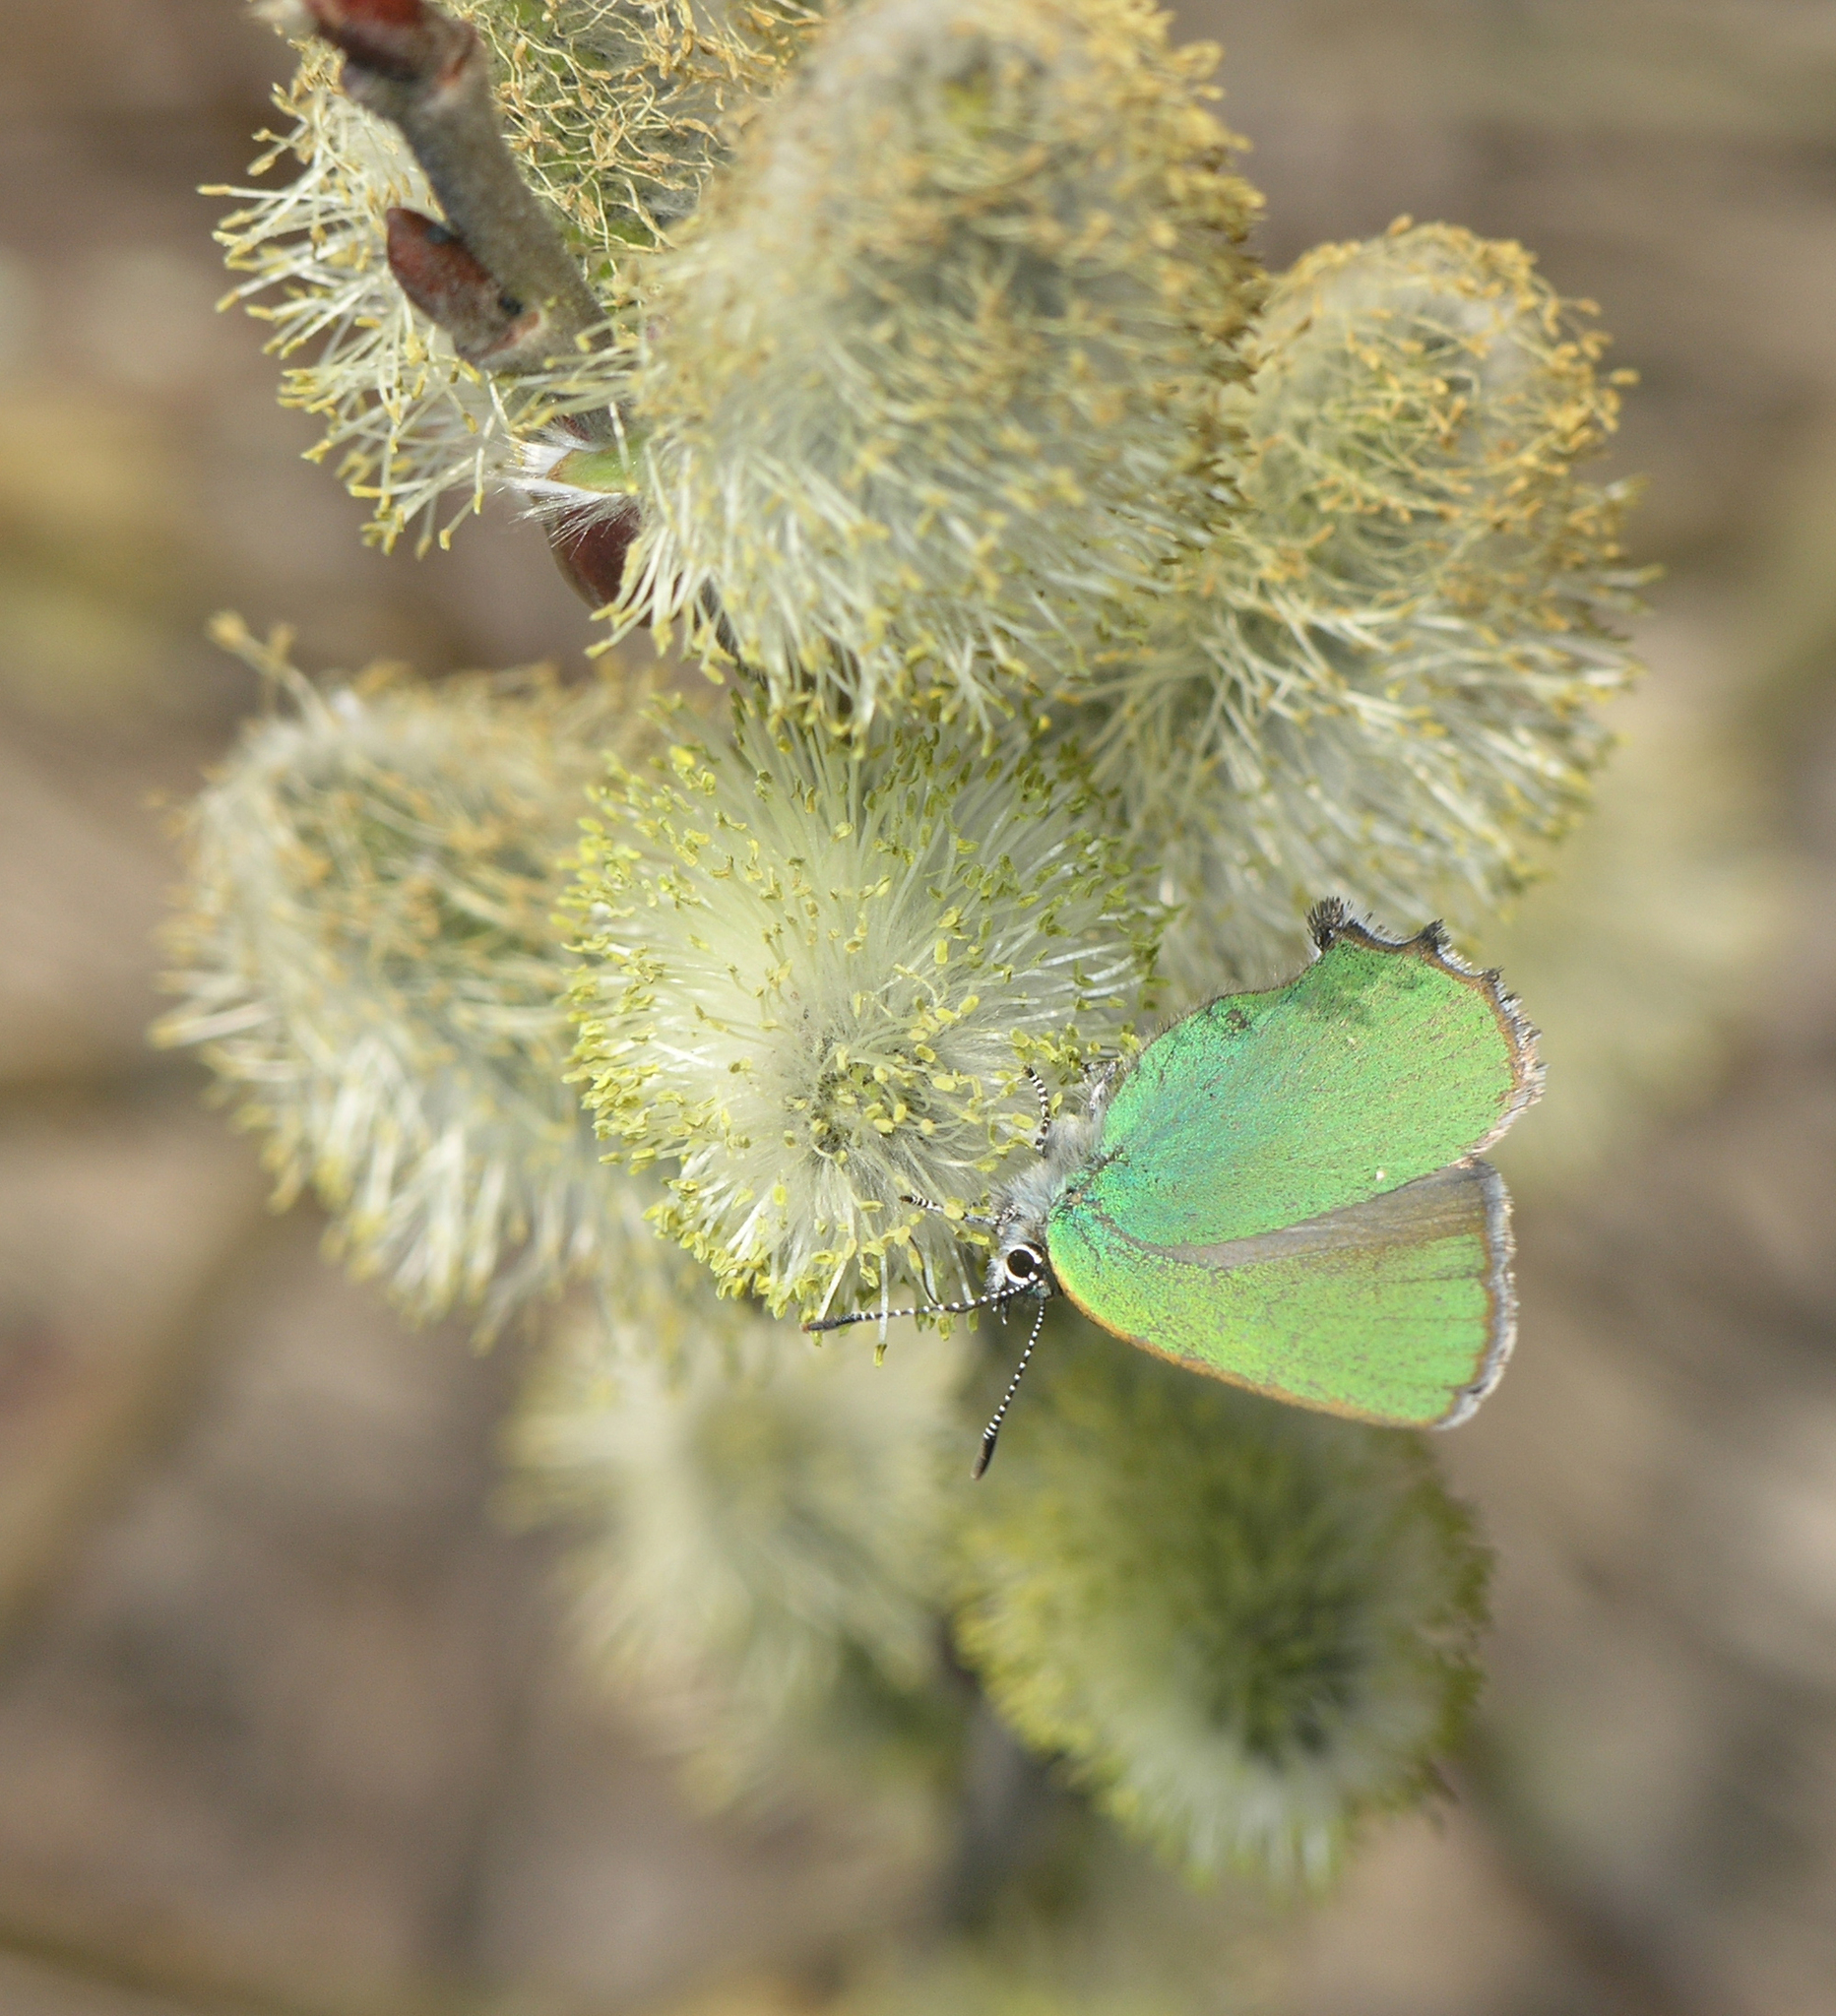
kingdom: Plantae
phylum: Tracheophyta
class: Magnoliopsida
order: Malpighiales
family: Salicaceae
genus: Salix
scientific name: Salix caprea
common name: Goat willow
